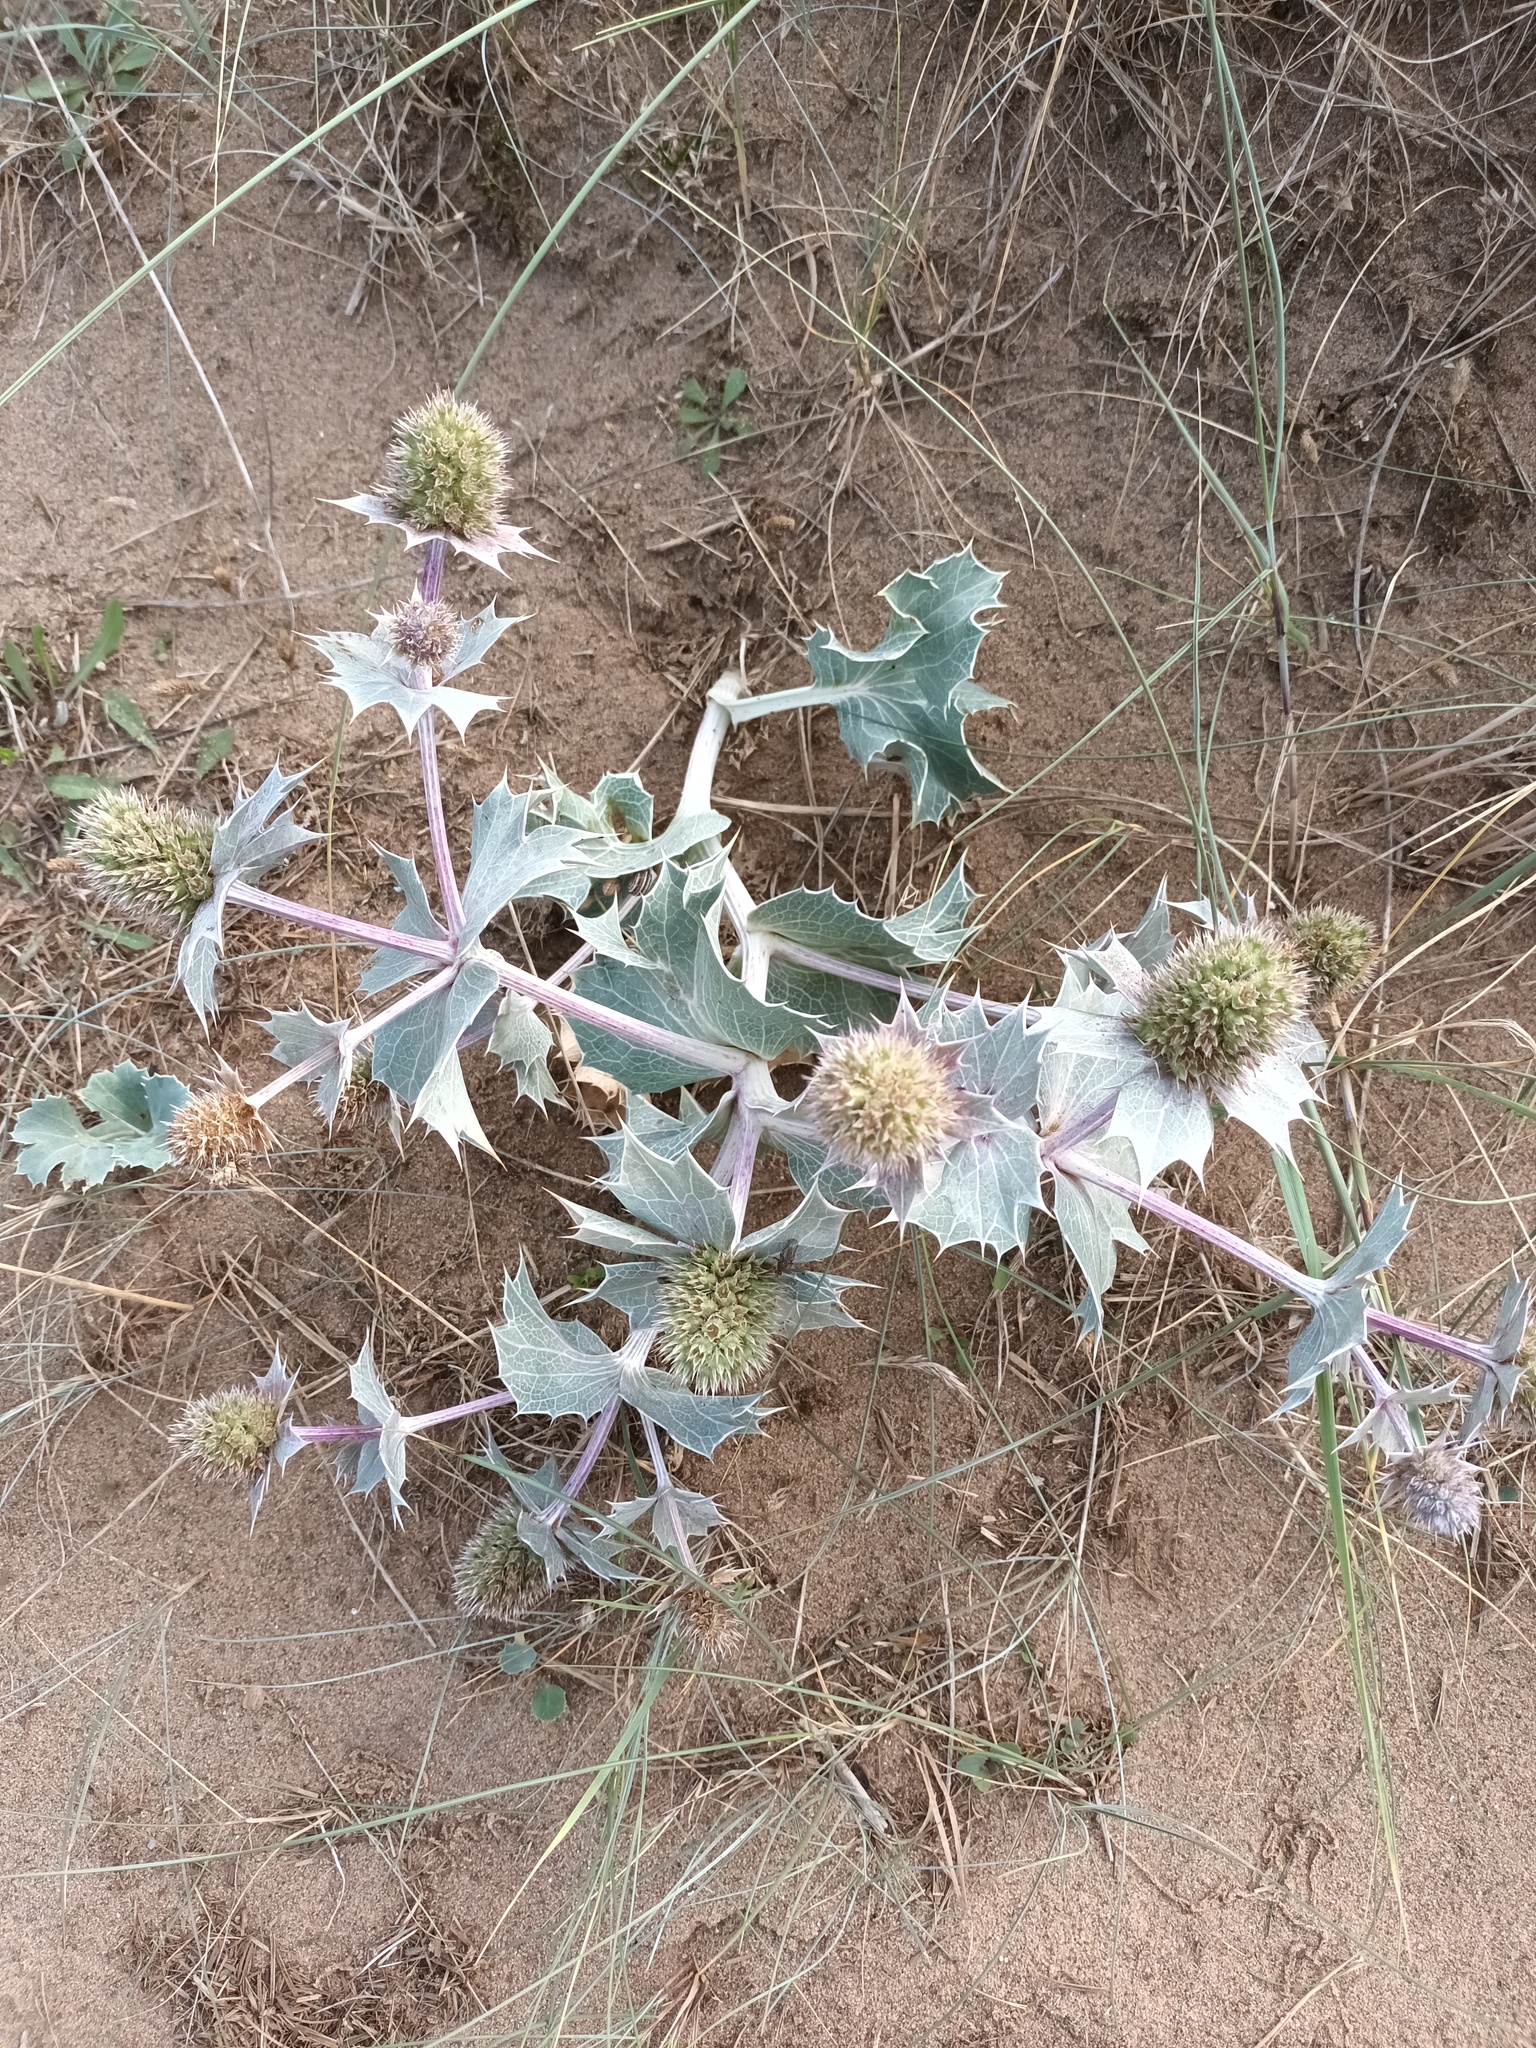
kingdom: Plantae
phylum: Tracheophyta
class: Magnoliopsida
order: Apiales
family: Apiaceae
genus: Eryngium
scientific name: Eryngium maritimum
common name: Sea-holly
